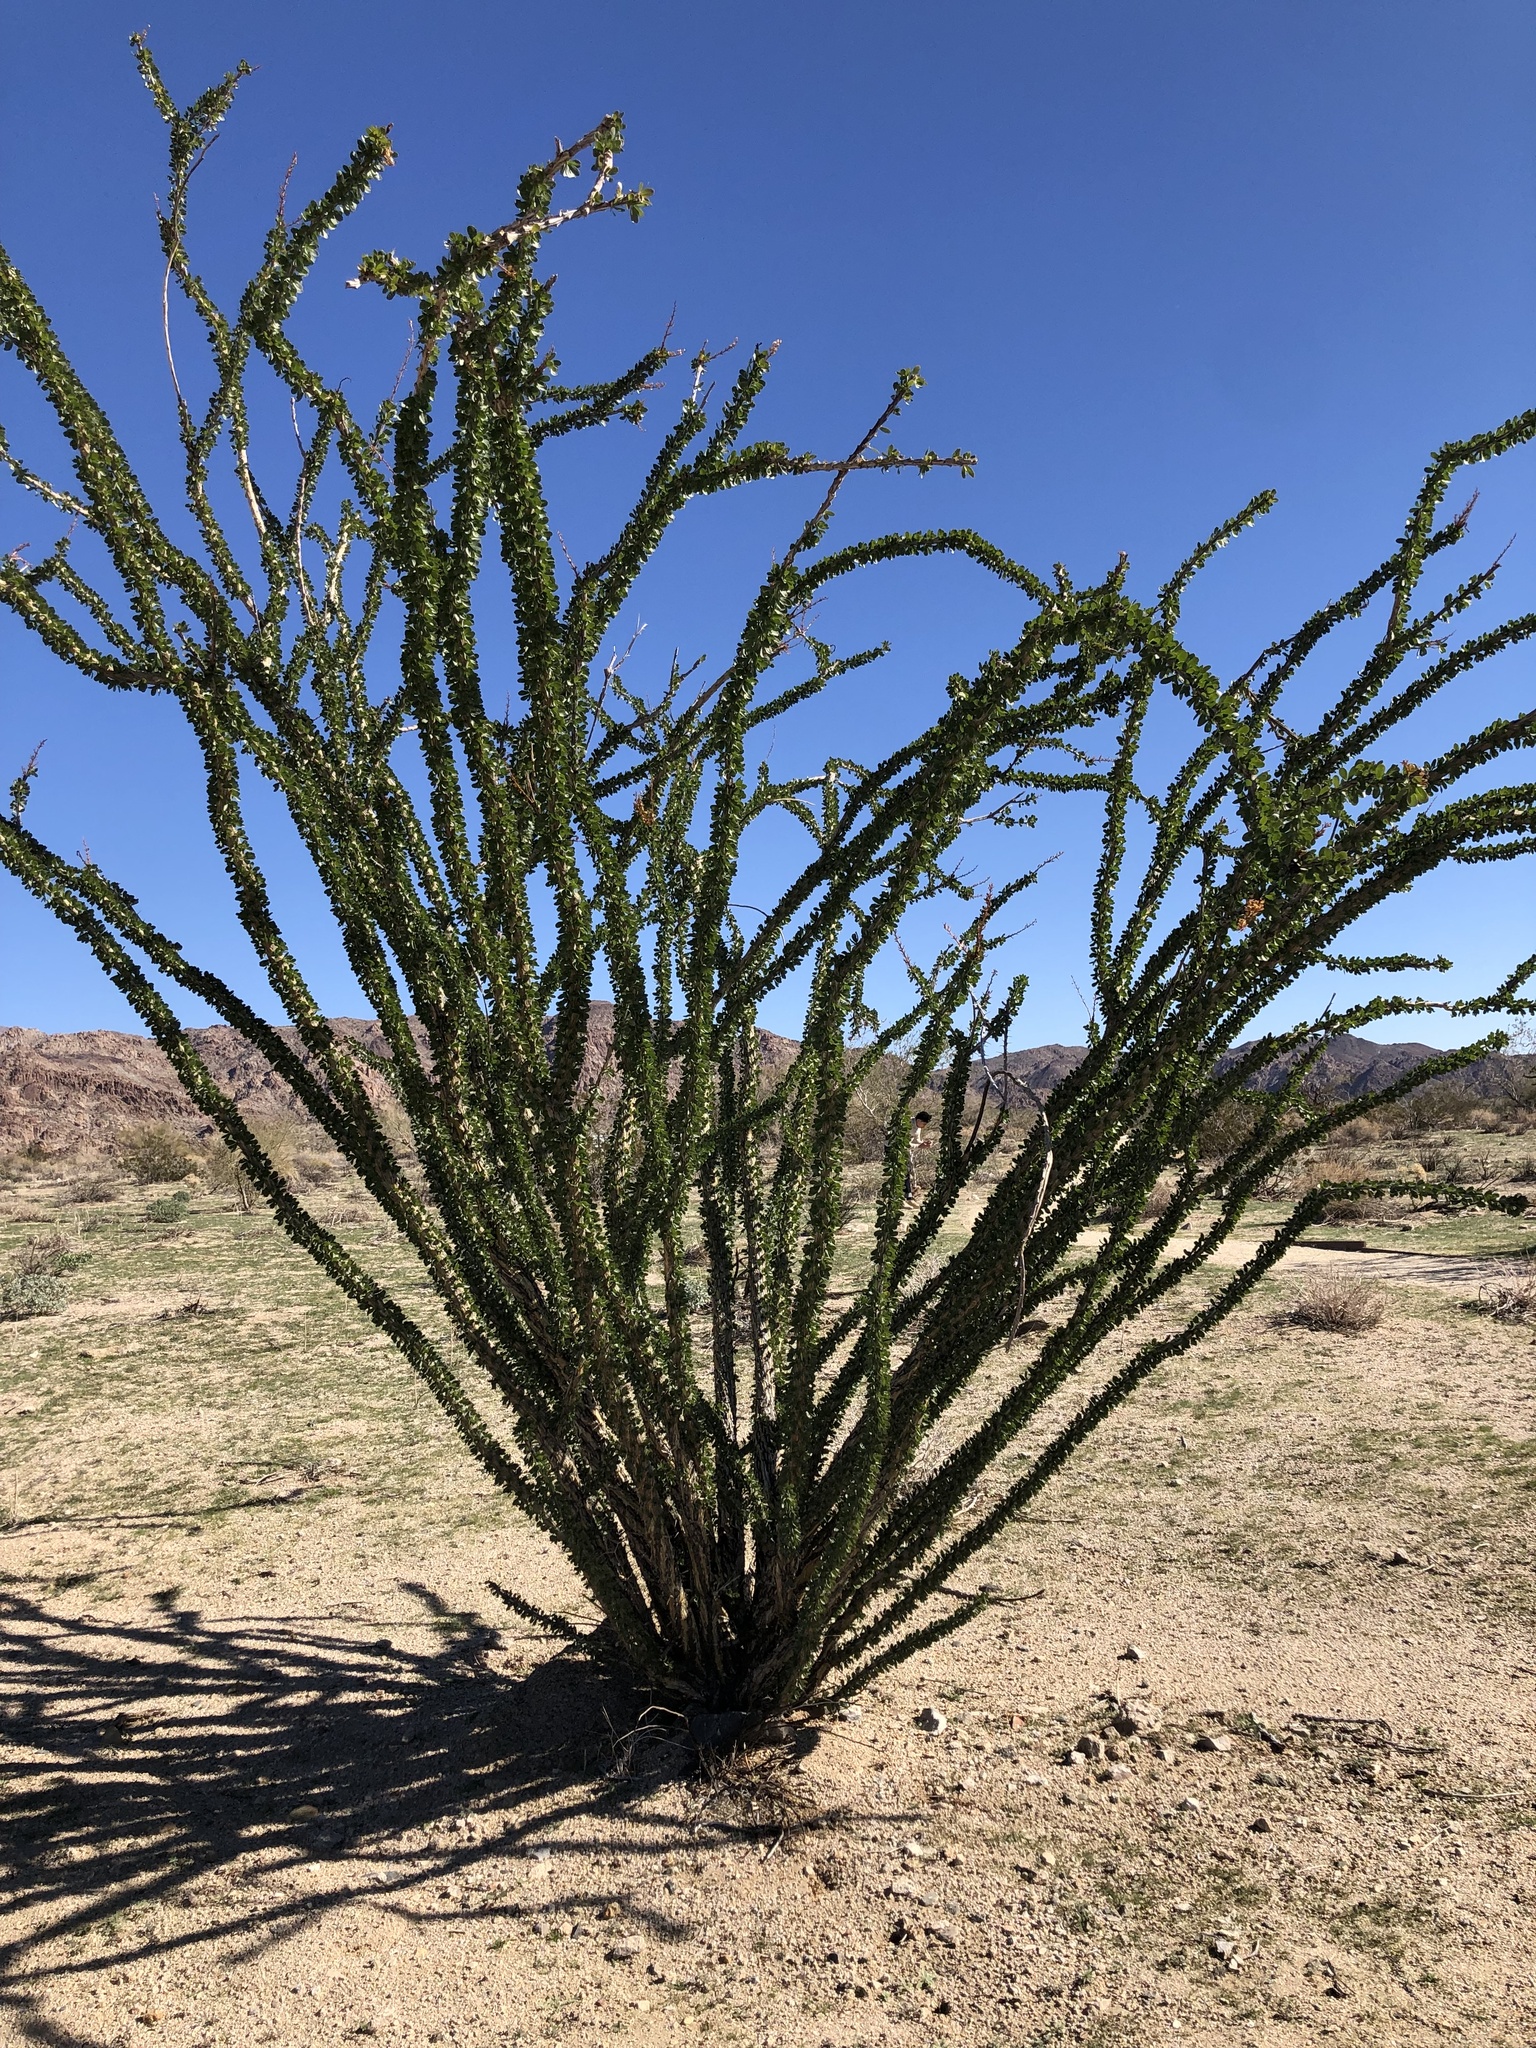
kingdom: Plantae
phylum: Tracheophyta
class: Magnoliopsida
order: Ericales
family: Fouquieriaceae
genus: Fouquieria
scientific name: Fouquieria splendens
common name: Vine-cactus
